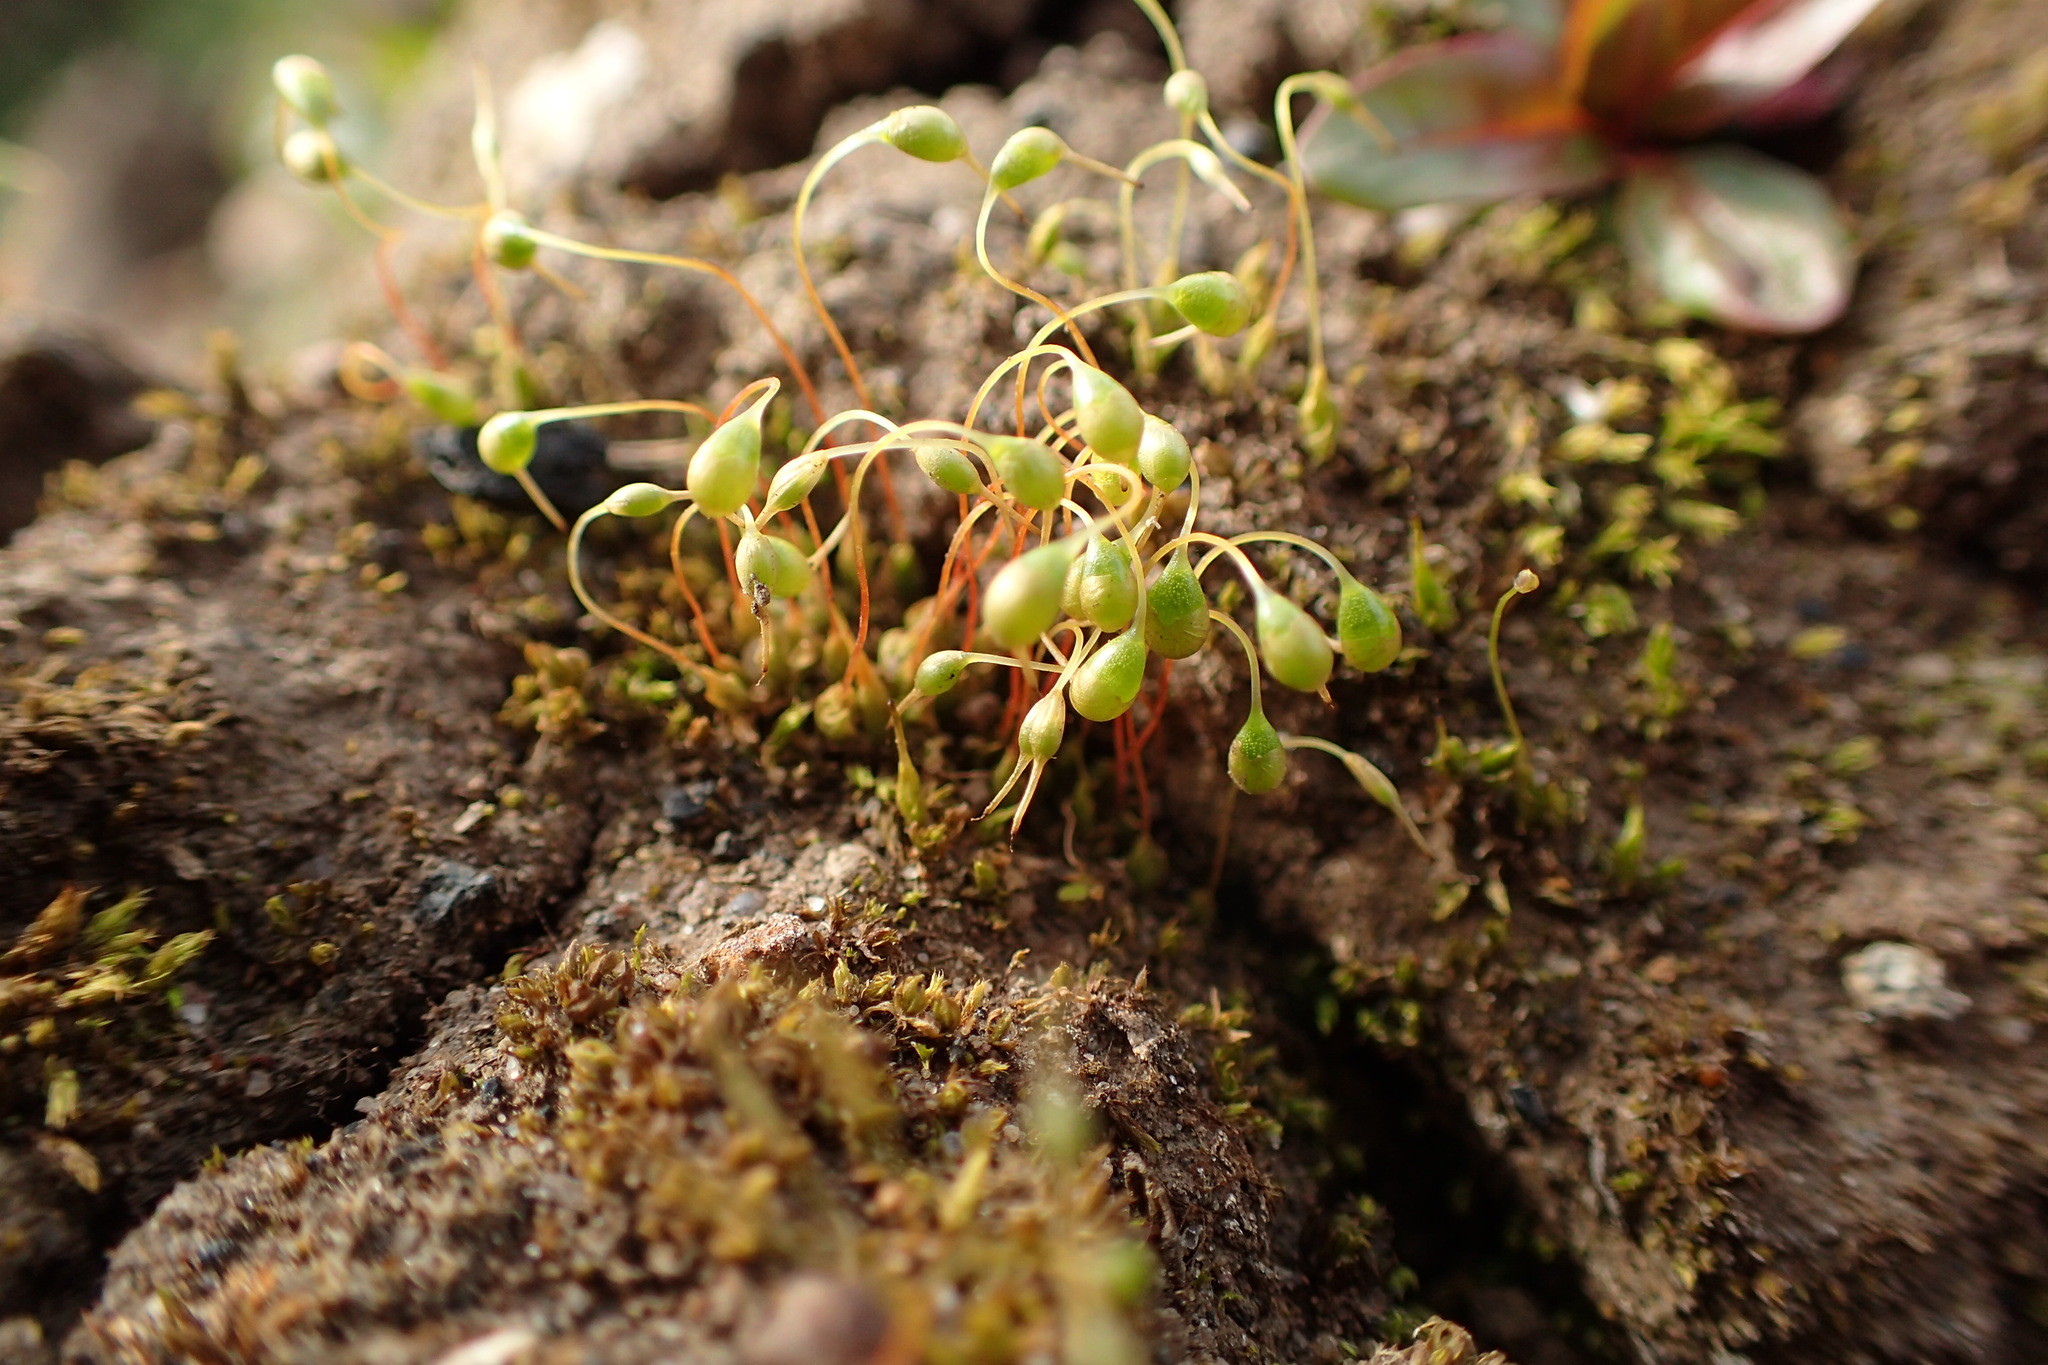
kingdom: Plantae
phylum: Bryophyta
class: Bryopsida
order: Funariales
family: Funariaceae
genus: Funaria
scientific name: Funaria hygrometrica
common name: Common cord moss
